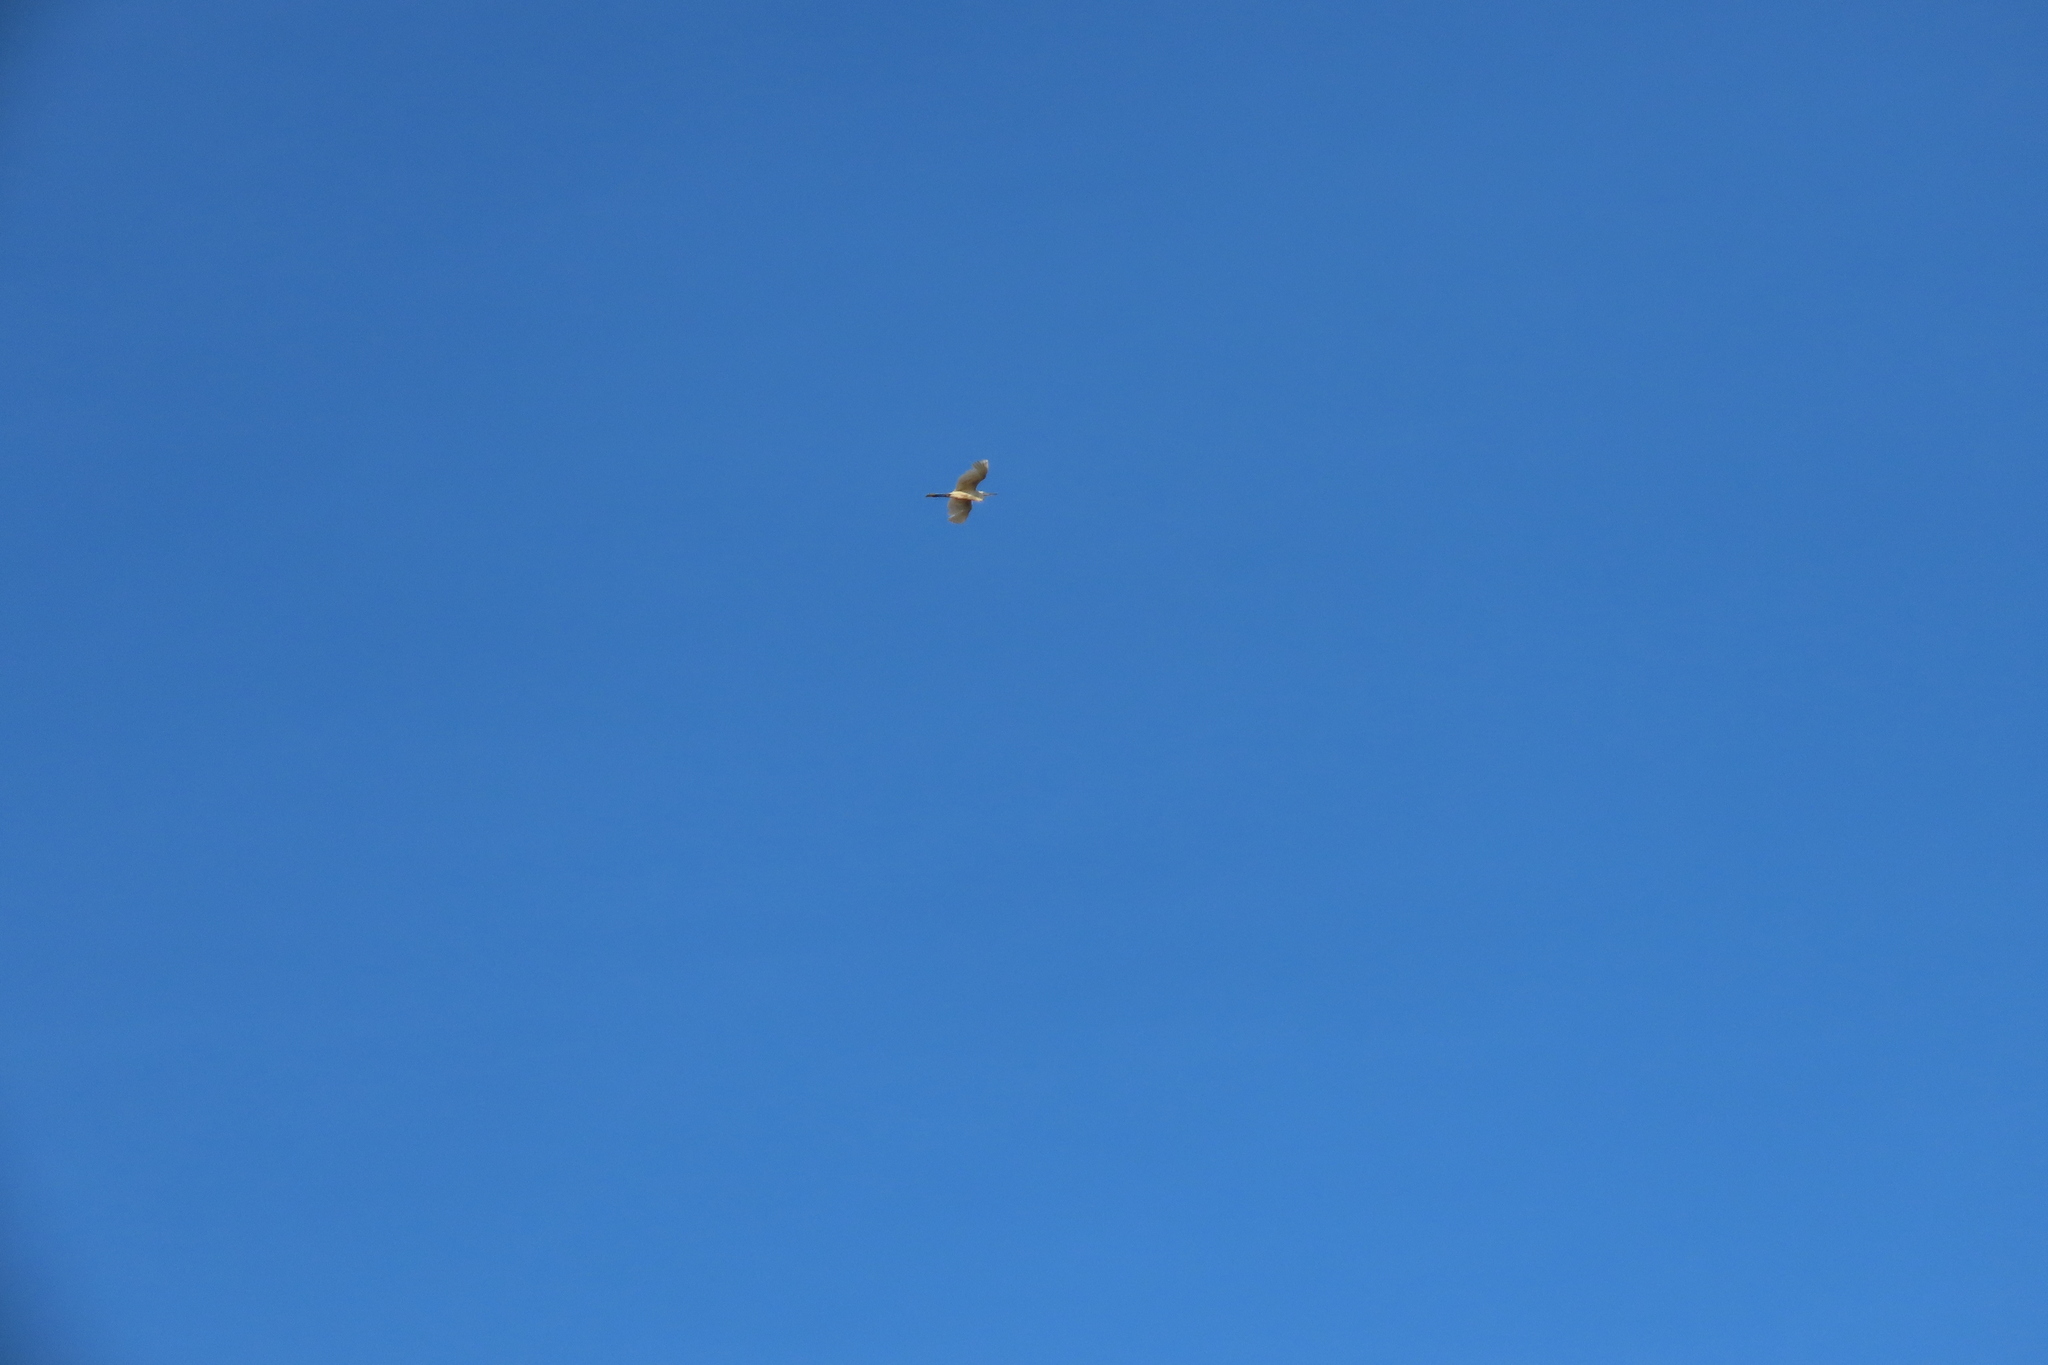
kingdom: Animalia
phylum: Chordata
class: Aves
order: Pelecaniformes
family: Ardeidae
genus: Egretta
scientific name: Egretta garzetta
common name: Little egret
